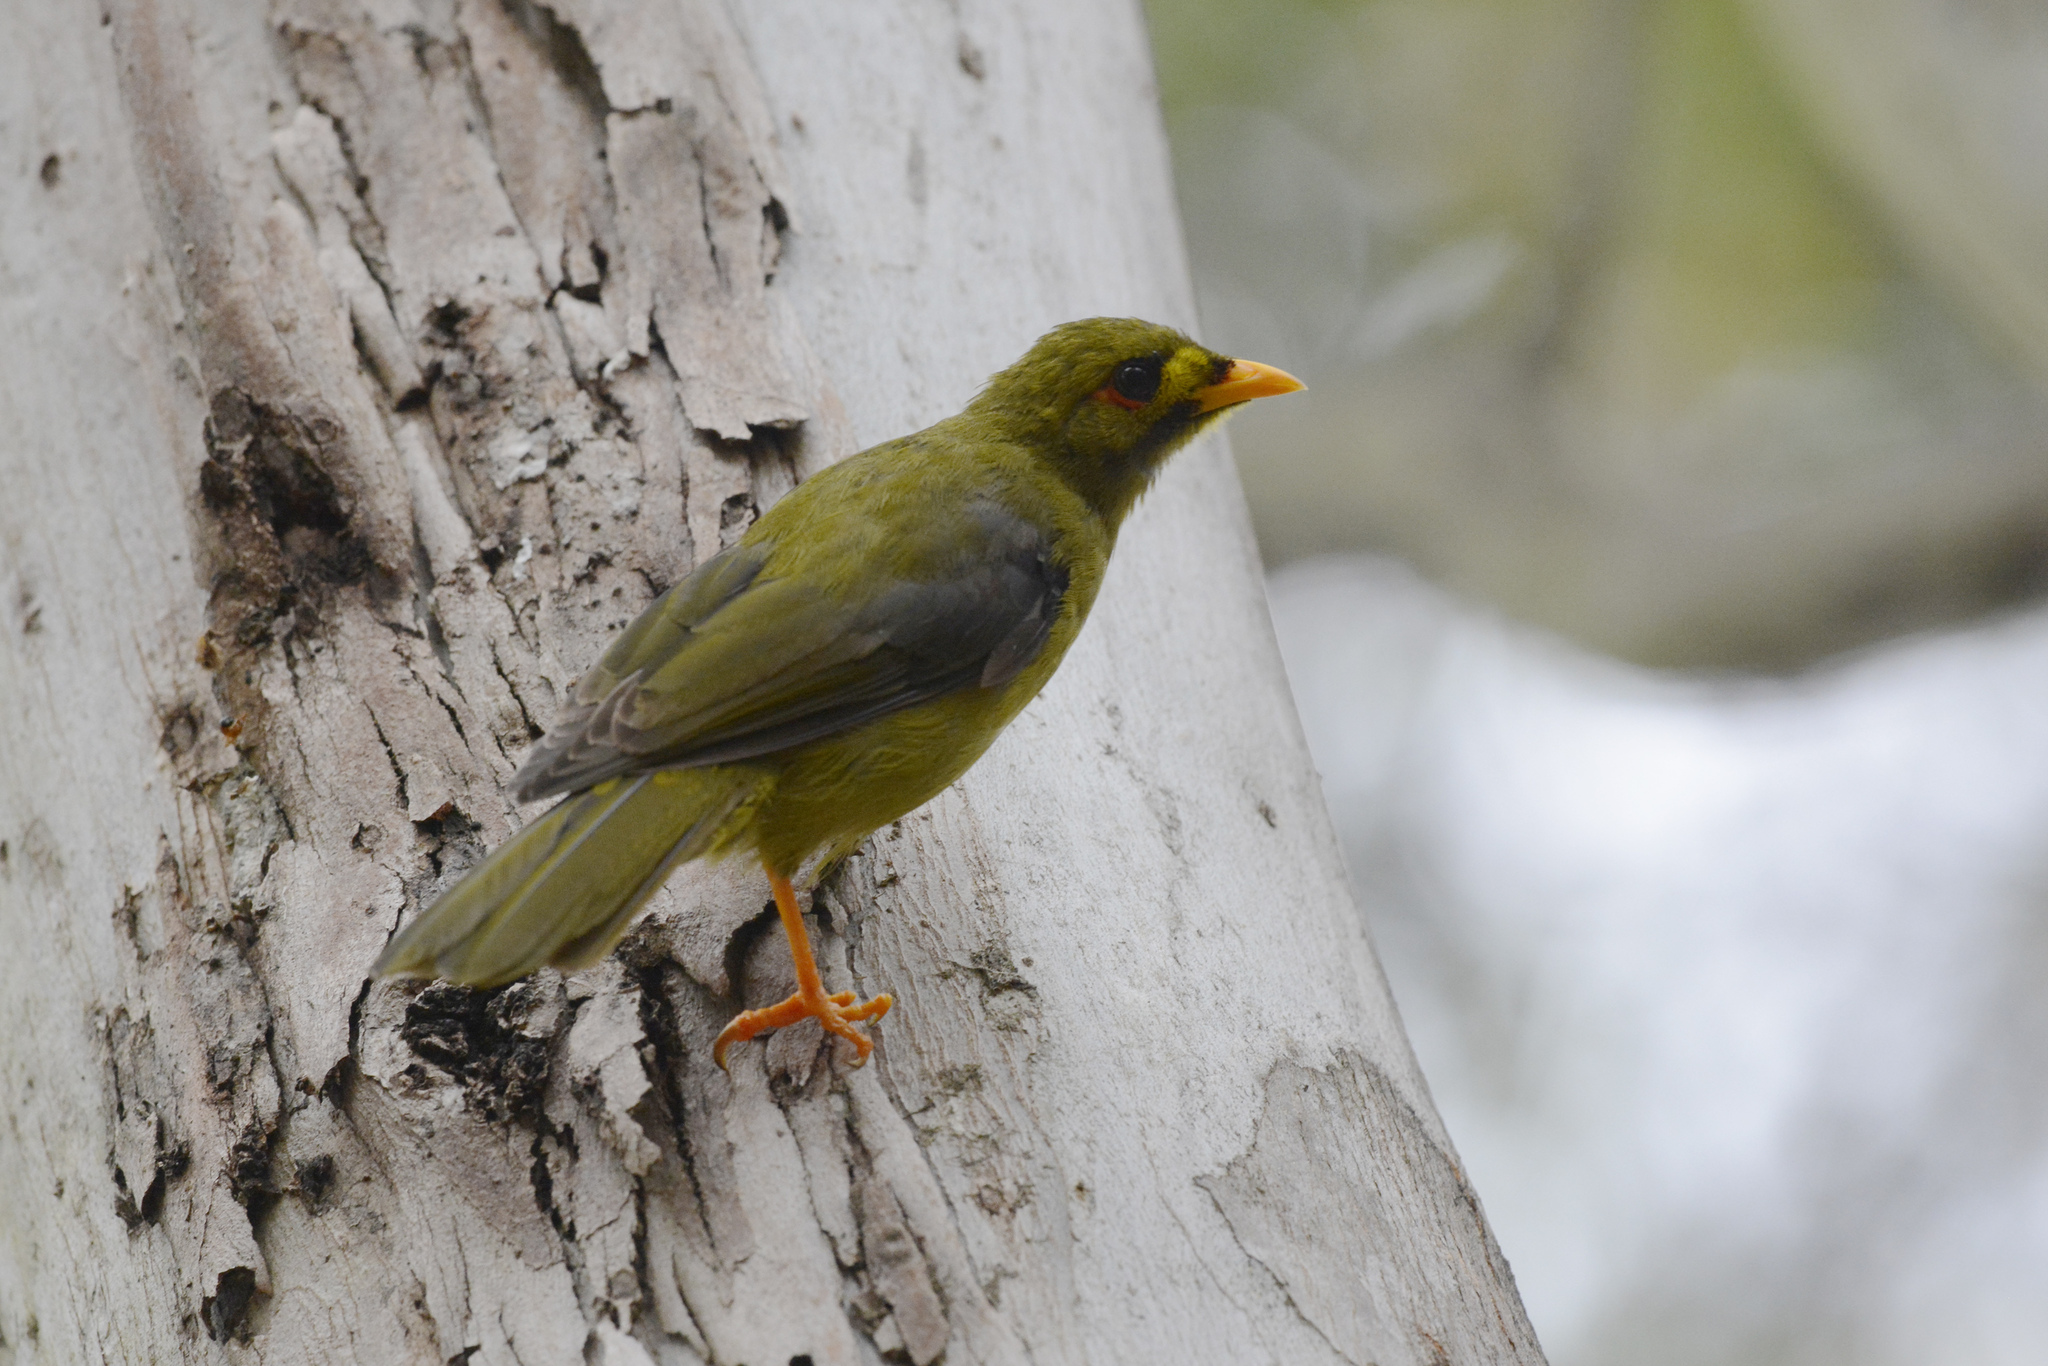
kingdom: Animalia
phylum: Chordata
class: Aves
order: Passeriformes
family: Meliphagidae
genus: Manorina
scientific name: Manorina melanophrys
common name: Bell miner
